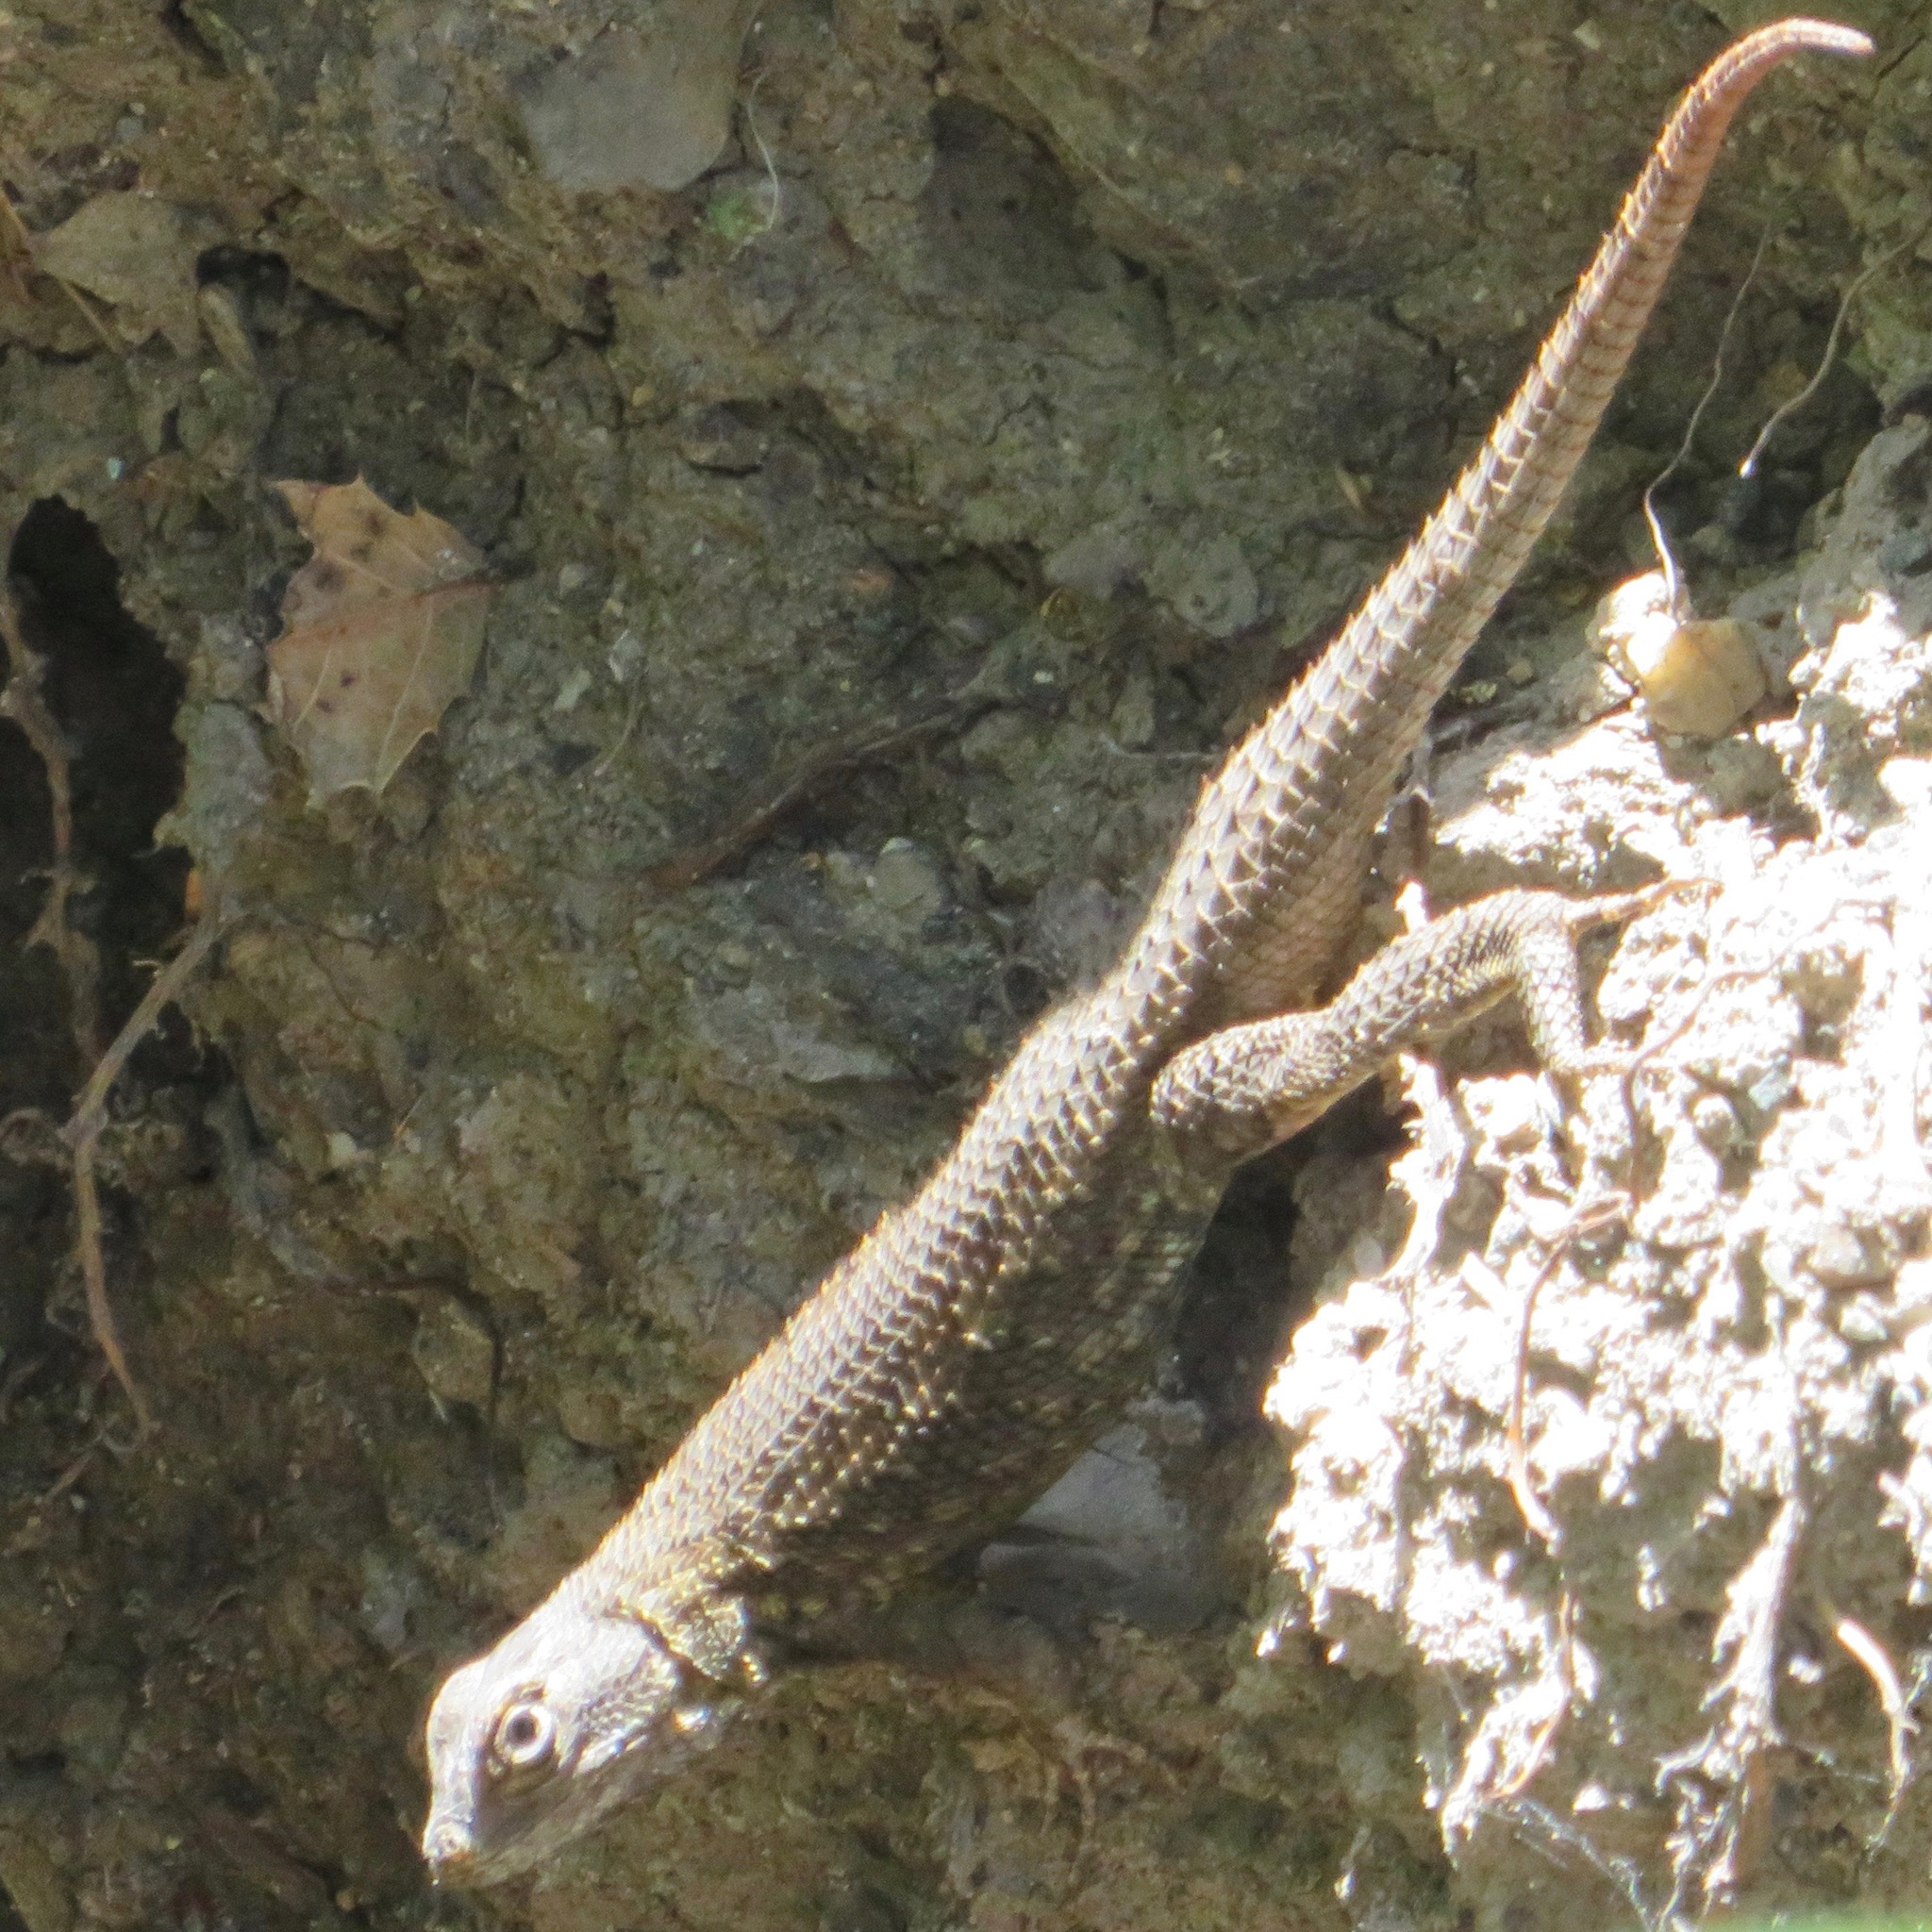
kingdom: Animalia
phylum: Chordata
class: Squamata
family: Phrynosomatidae
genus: Sceloporus
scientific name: Sceloporus occidentalis
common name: Western fence lizard
